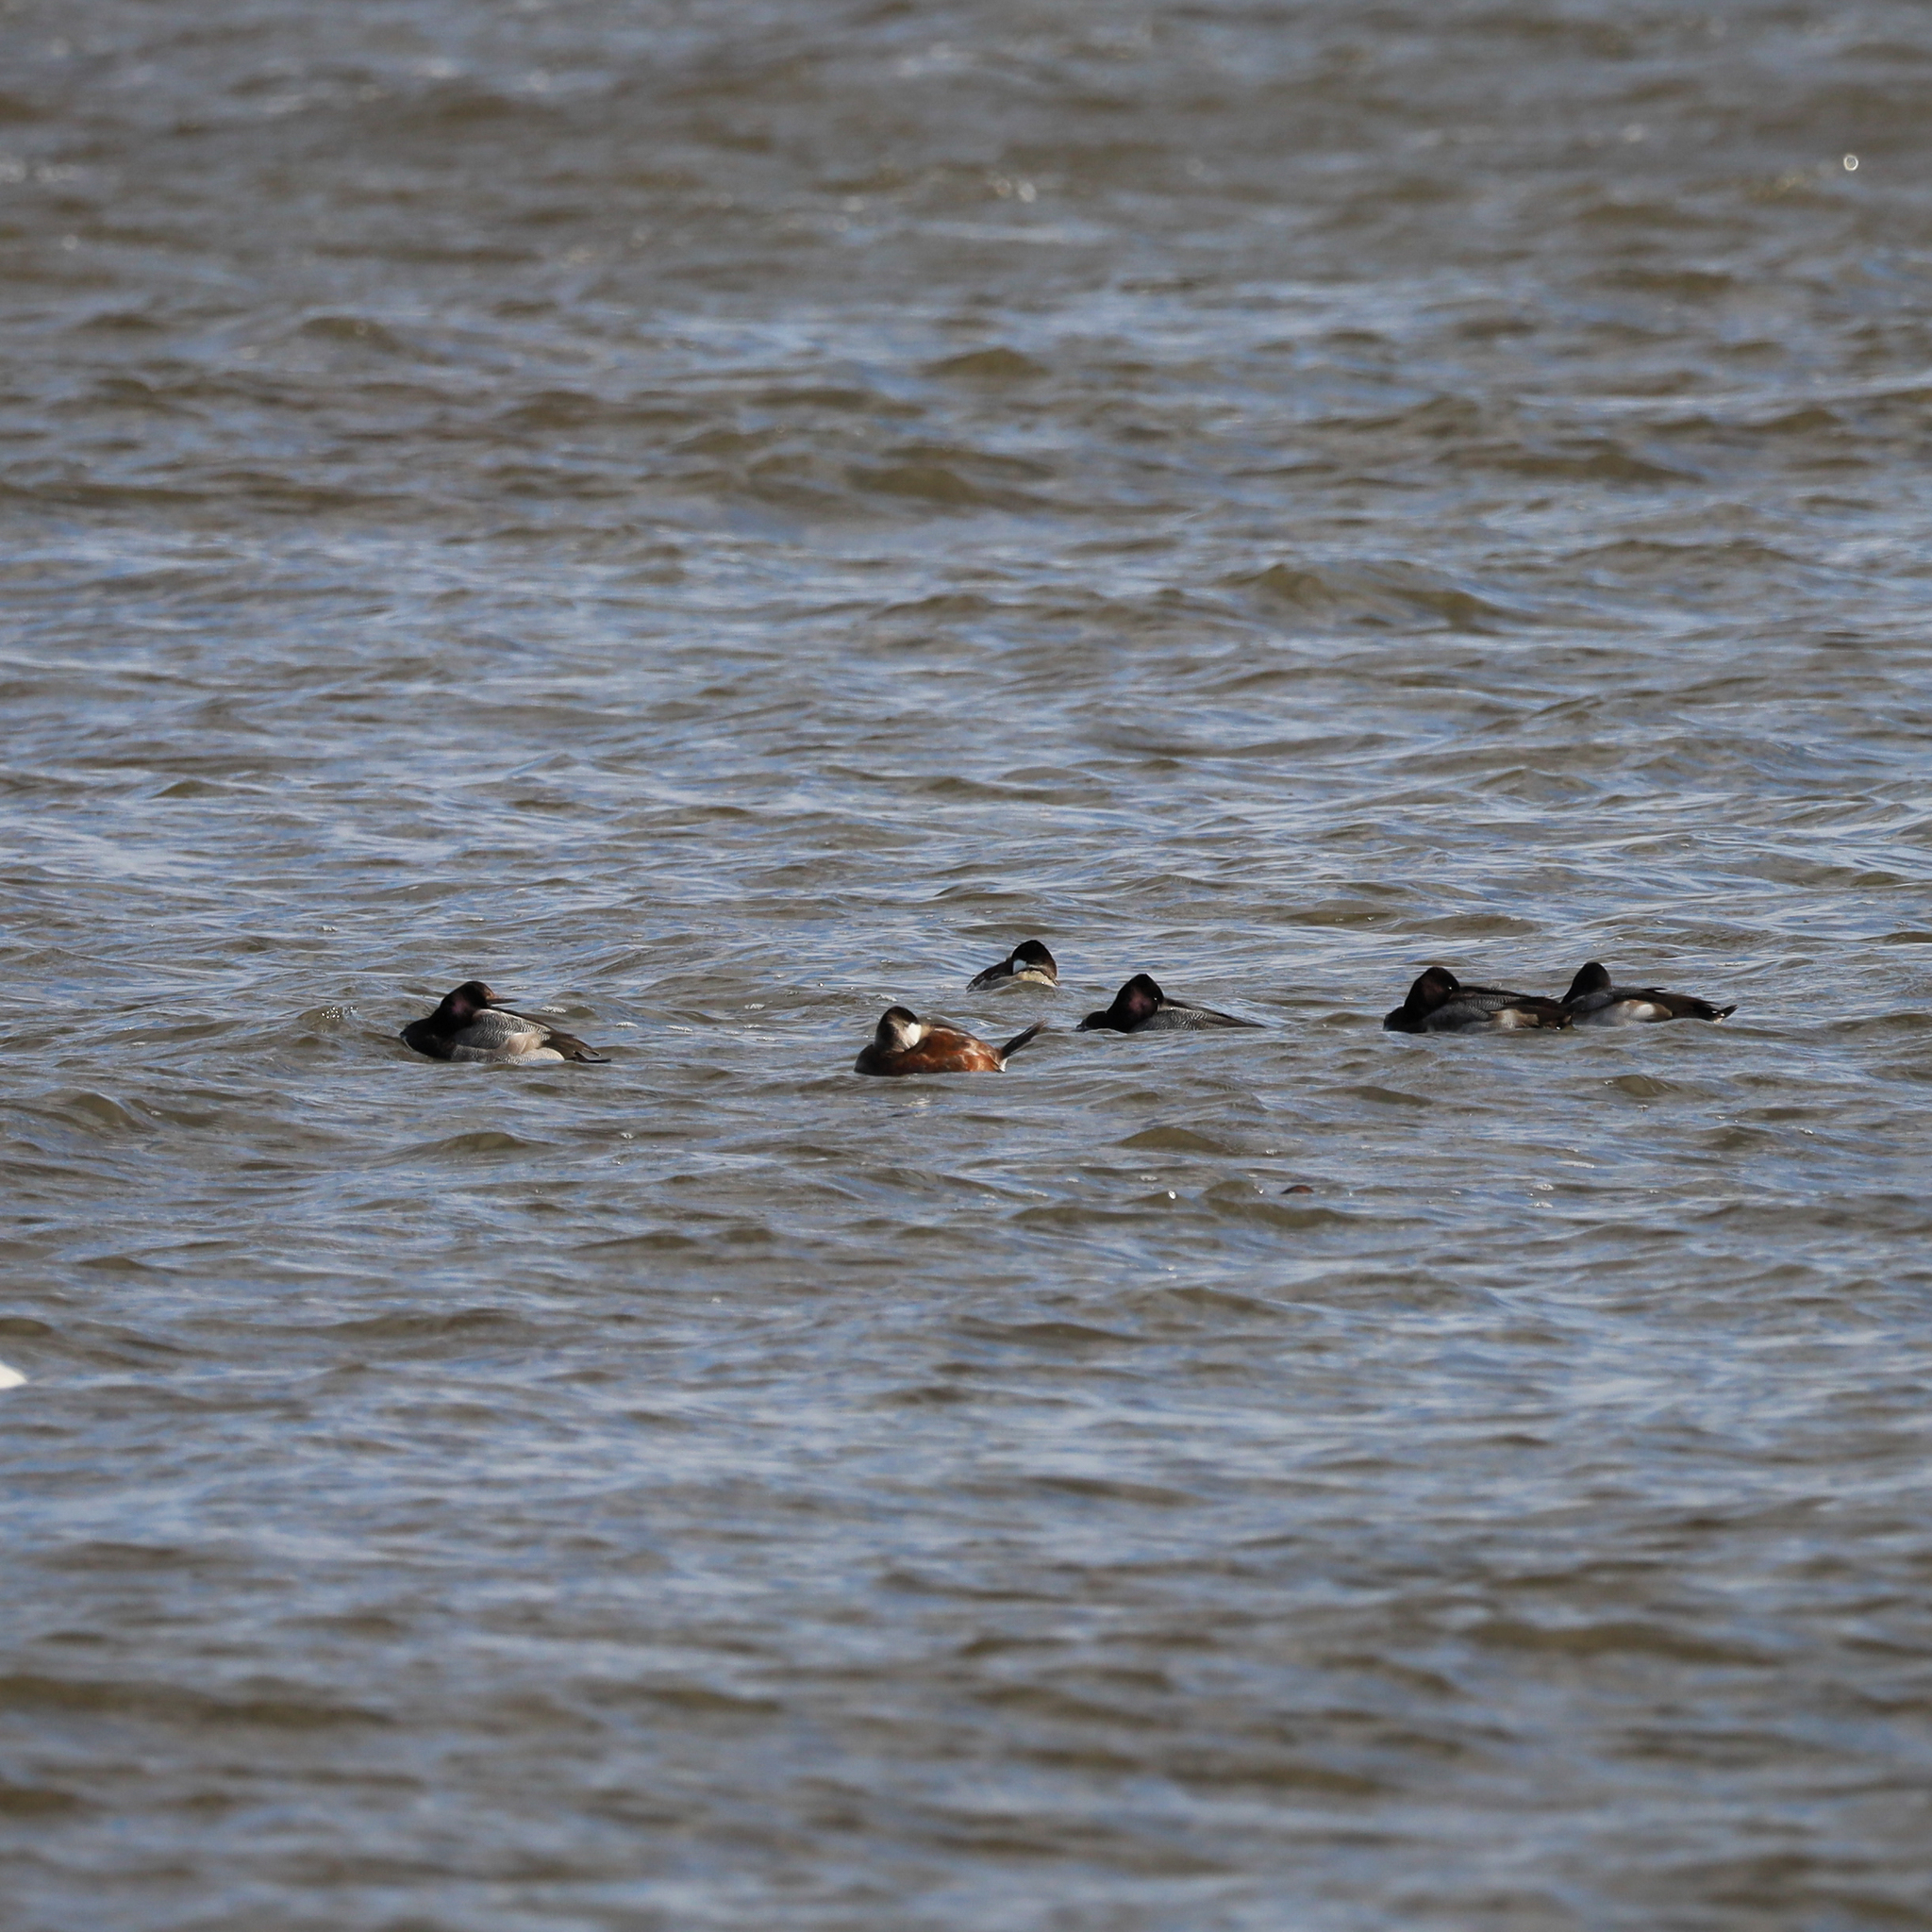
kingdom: Animalia
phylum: Chordata
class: Aves
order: Anseriformes
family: Anatidae
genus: Oxyura
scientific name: Oxyura jamaicensis
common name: Ruddy duck
